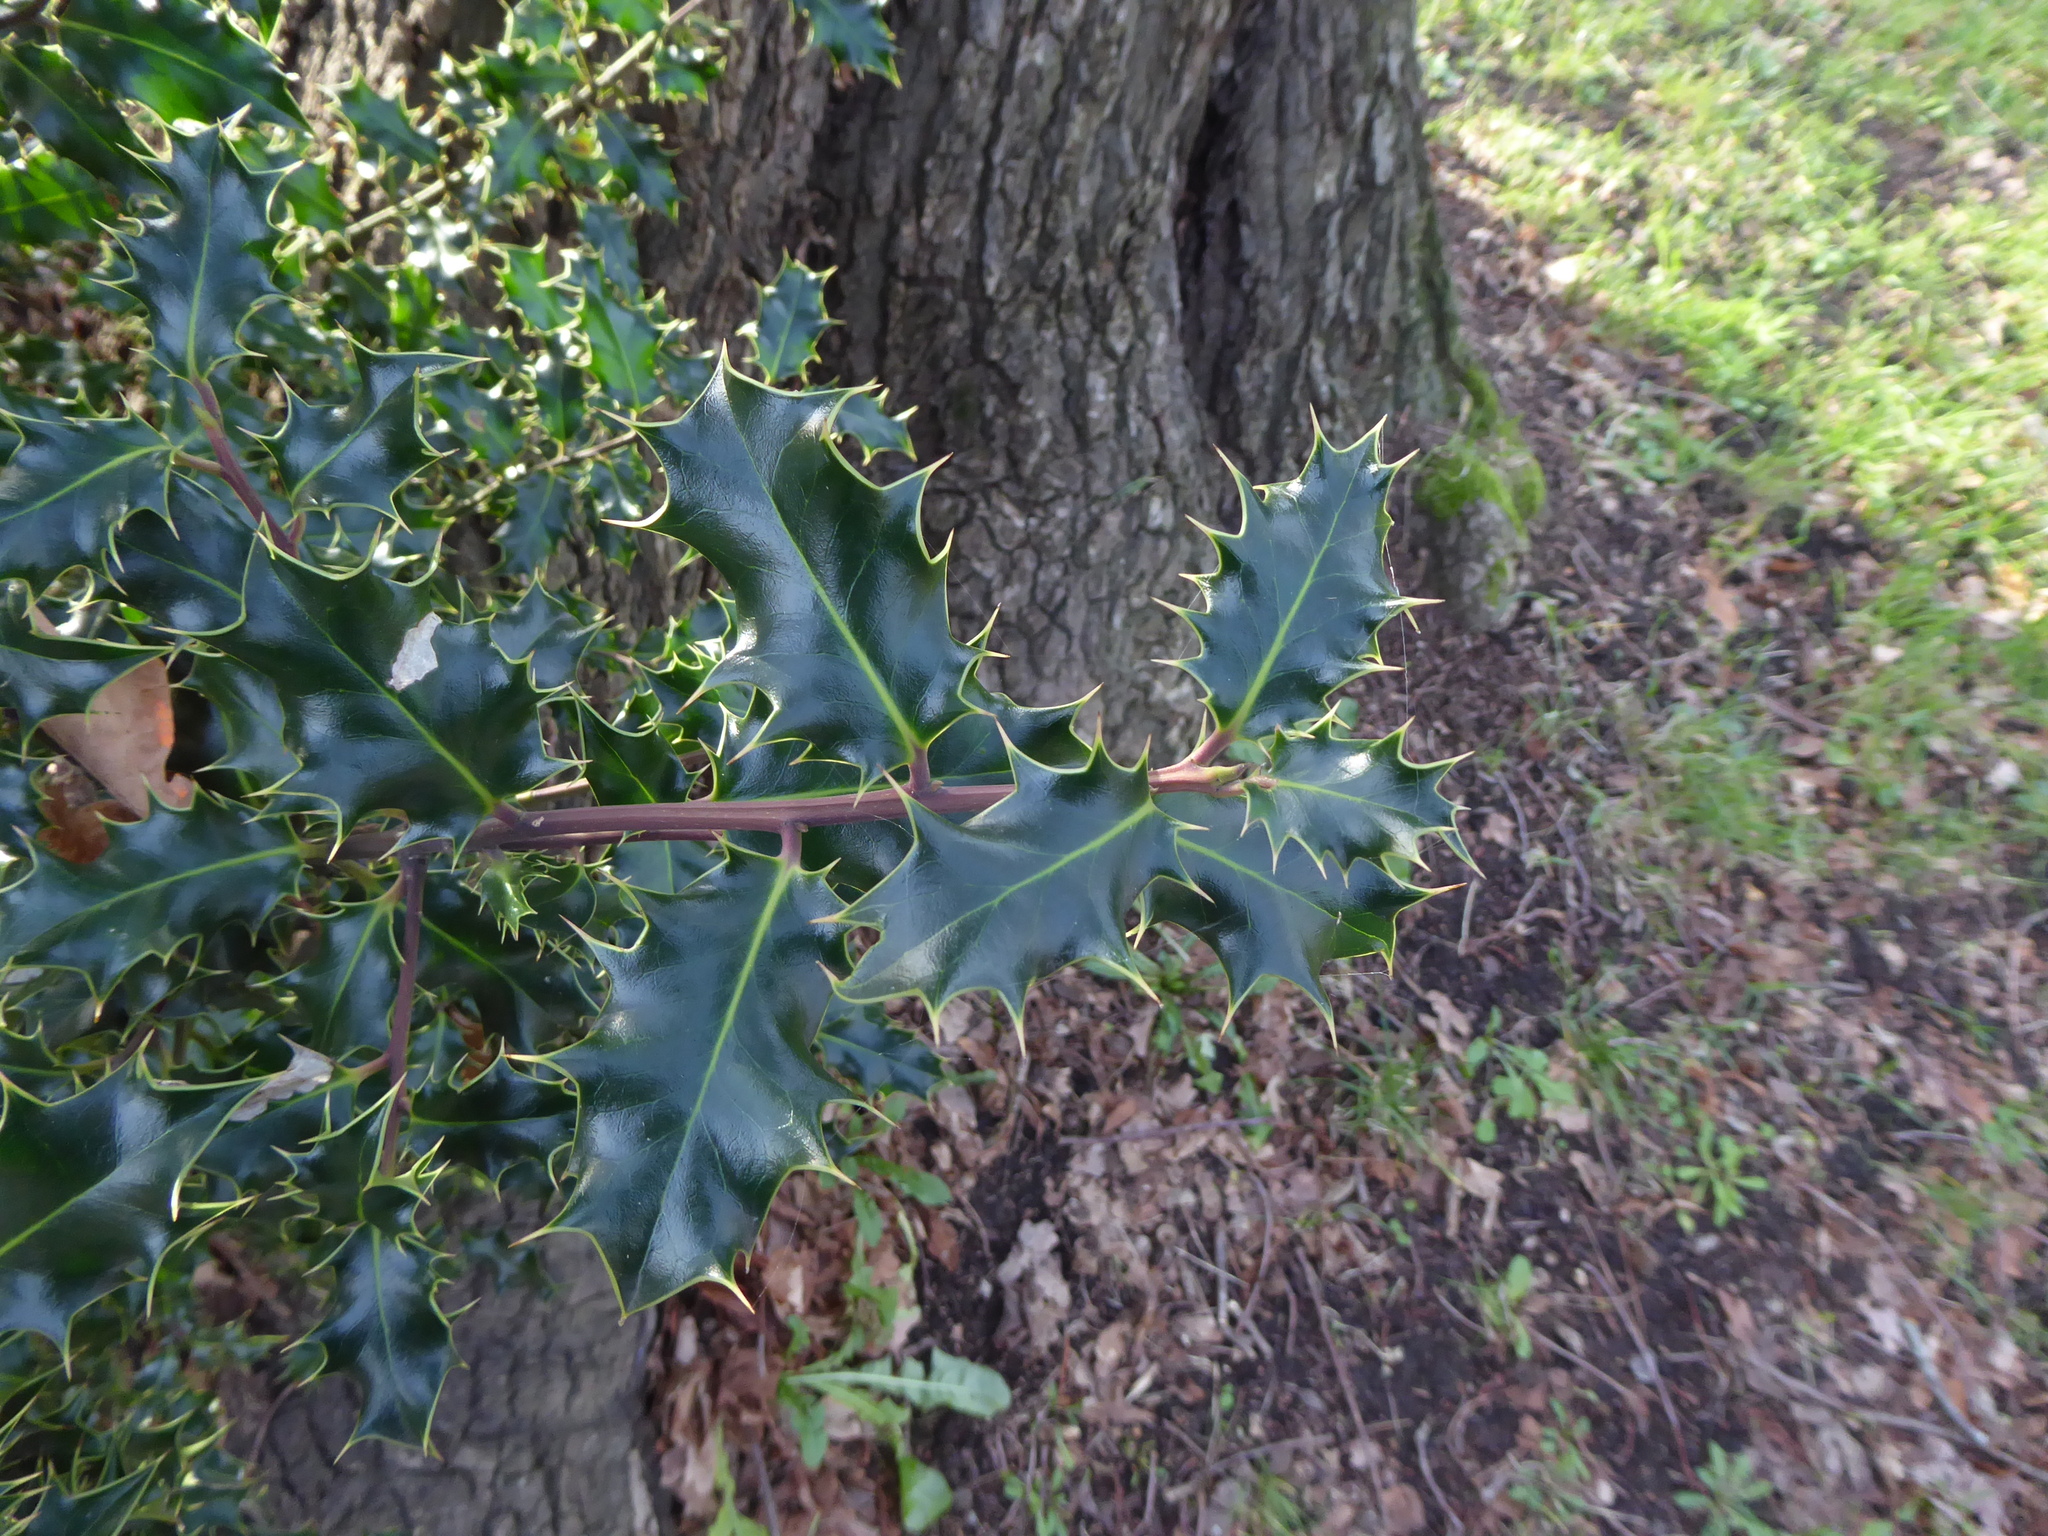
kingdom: Plantae
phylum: Tracheophyta
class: Magnoliopsida
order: Aquifoliales
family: Aquifoliaceae
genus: Ilex
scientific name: Ilex aquifolium
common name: English holly
